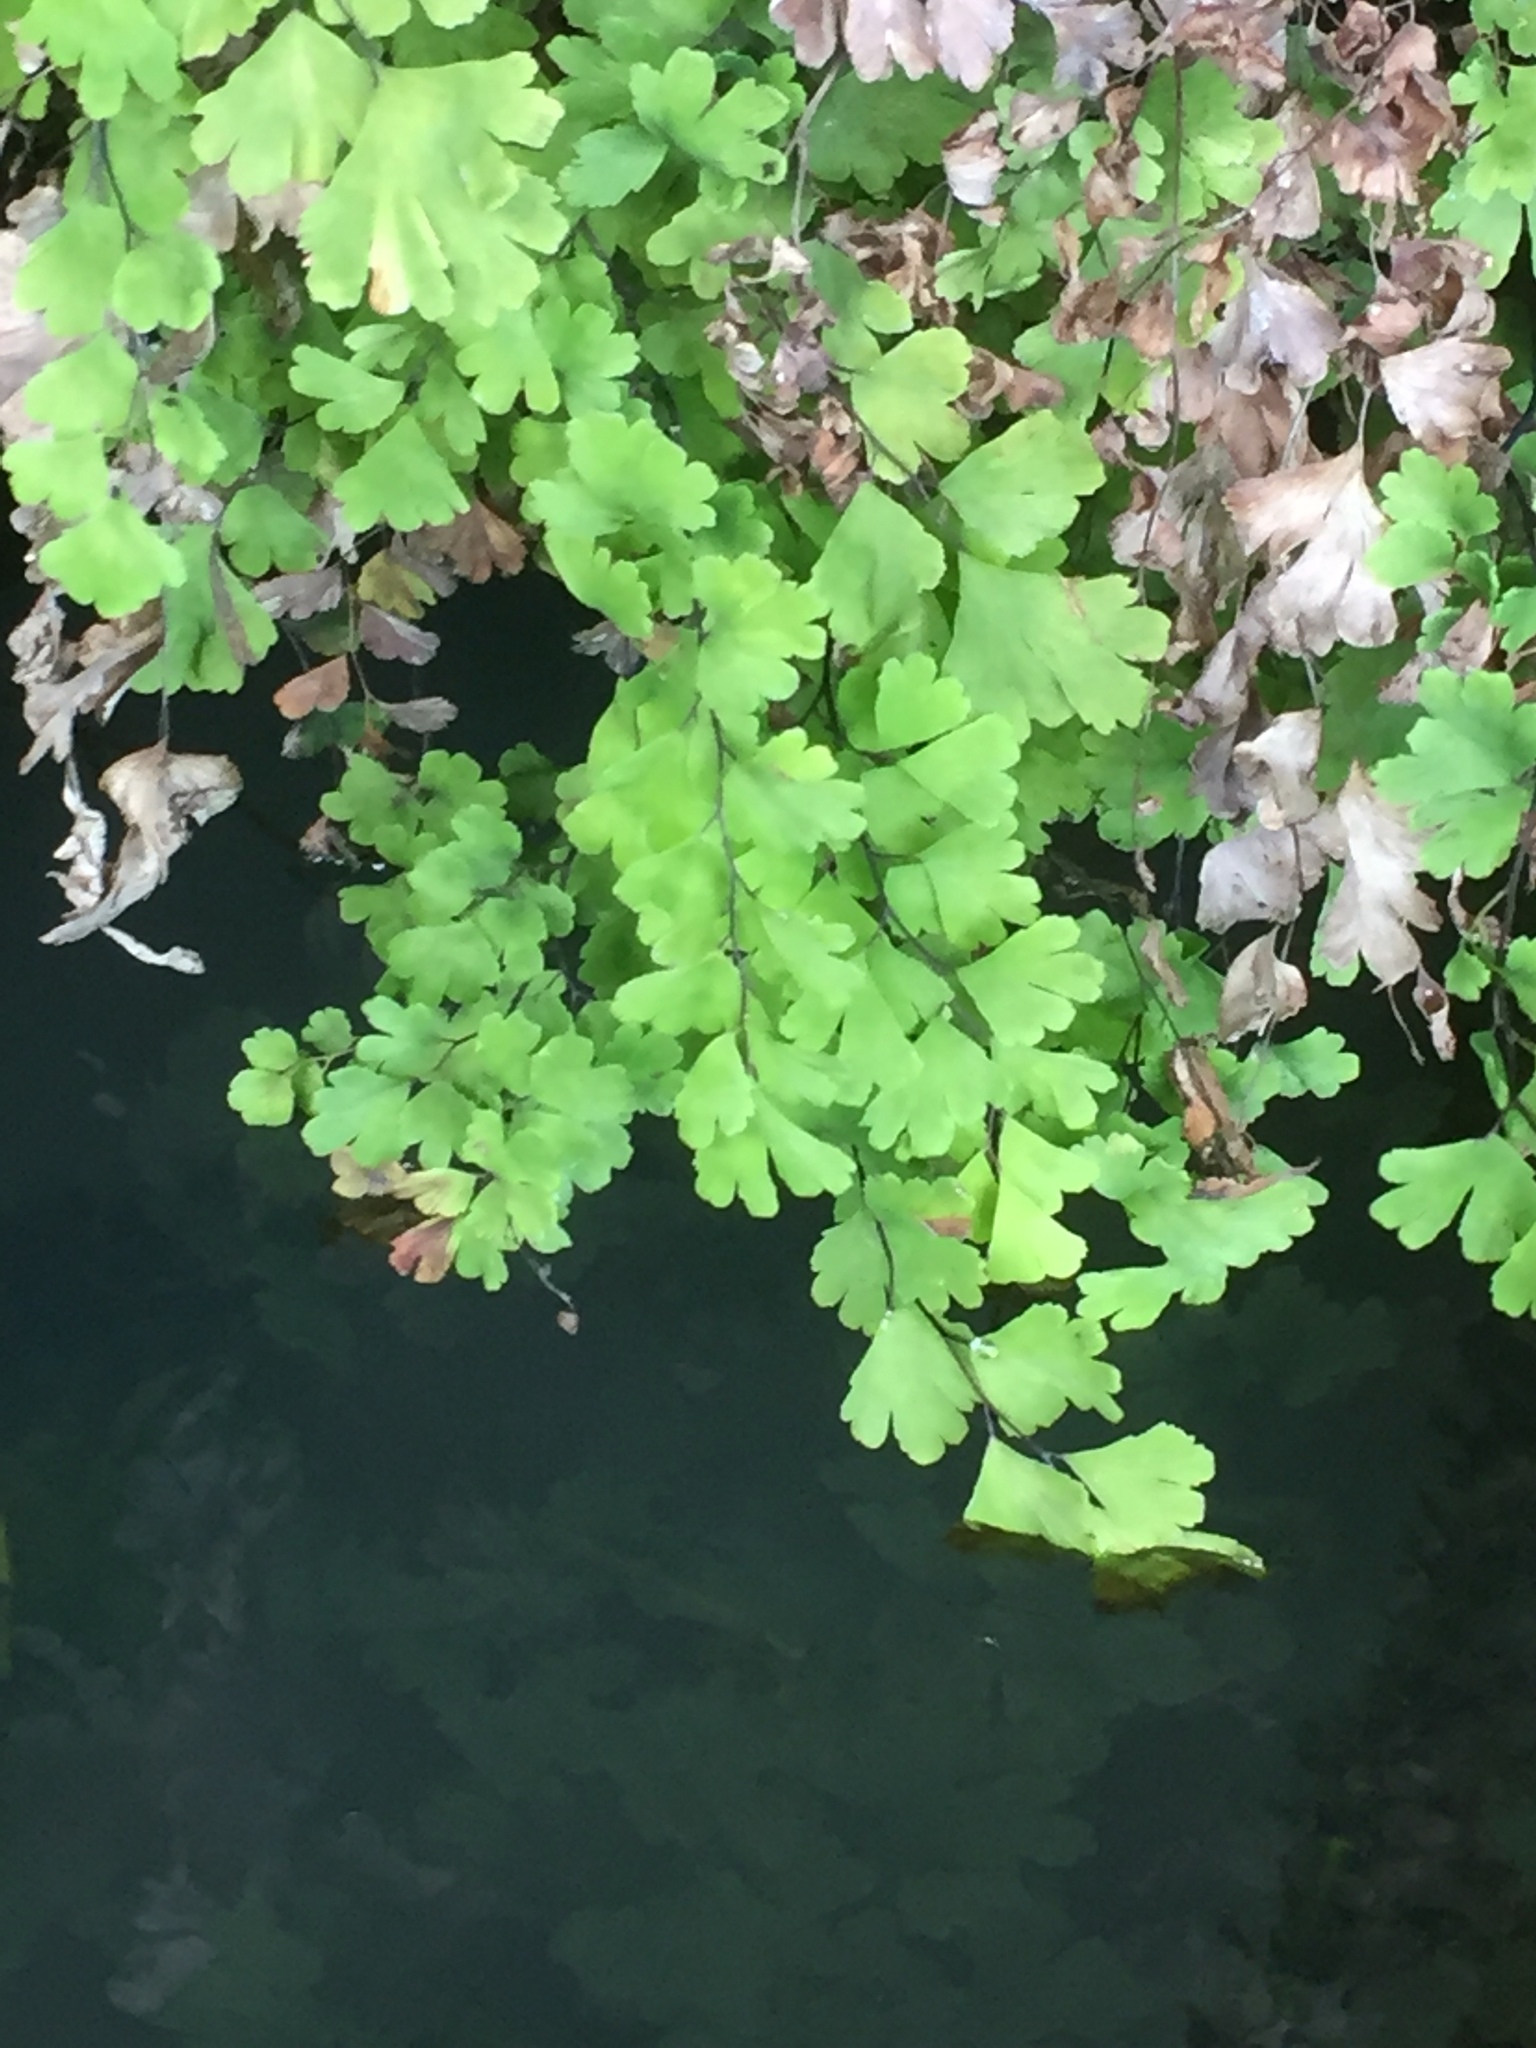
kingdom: Plantae
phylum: Tracheophyta
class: Polypodiopsida
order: Polypodiales
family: Pteridaceae
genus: Adiantum
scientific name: Adiantum capillus-veneris
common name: Maidenhair fern
